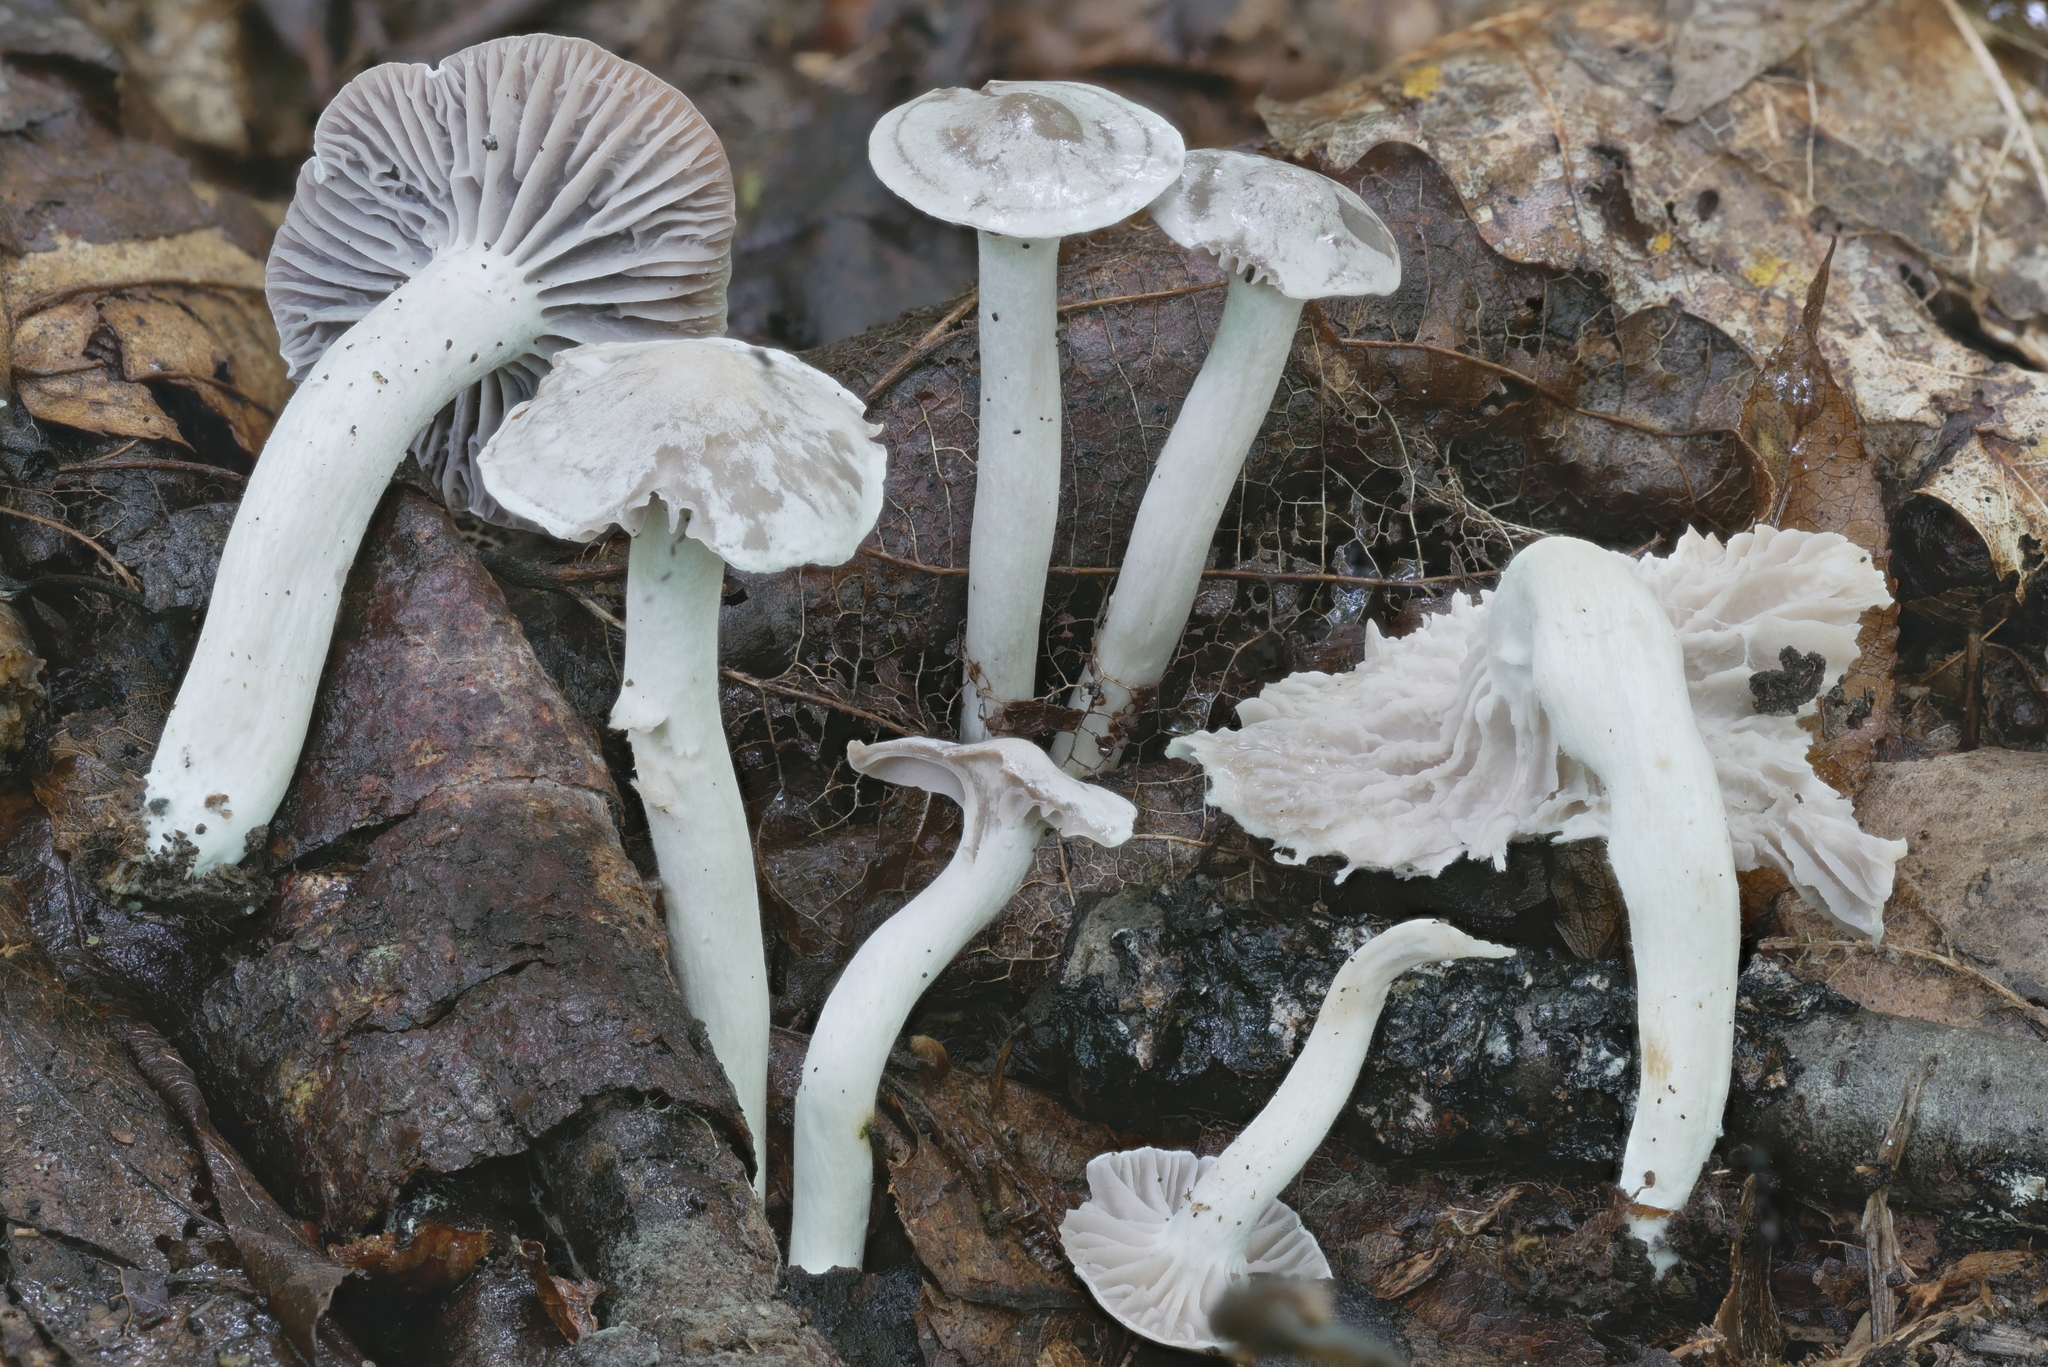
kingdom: Fungi
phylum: Basidiomycota
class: Agaricomycetes
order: Agaricales
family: Hygrophoraceae
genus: Cuphophyllus
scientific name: Cuphophyllus canescens
